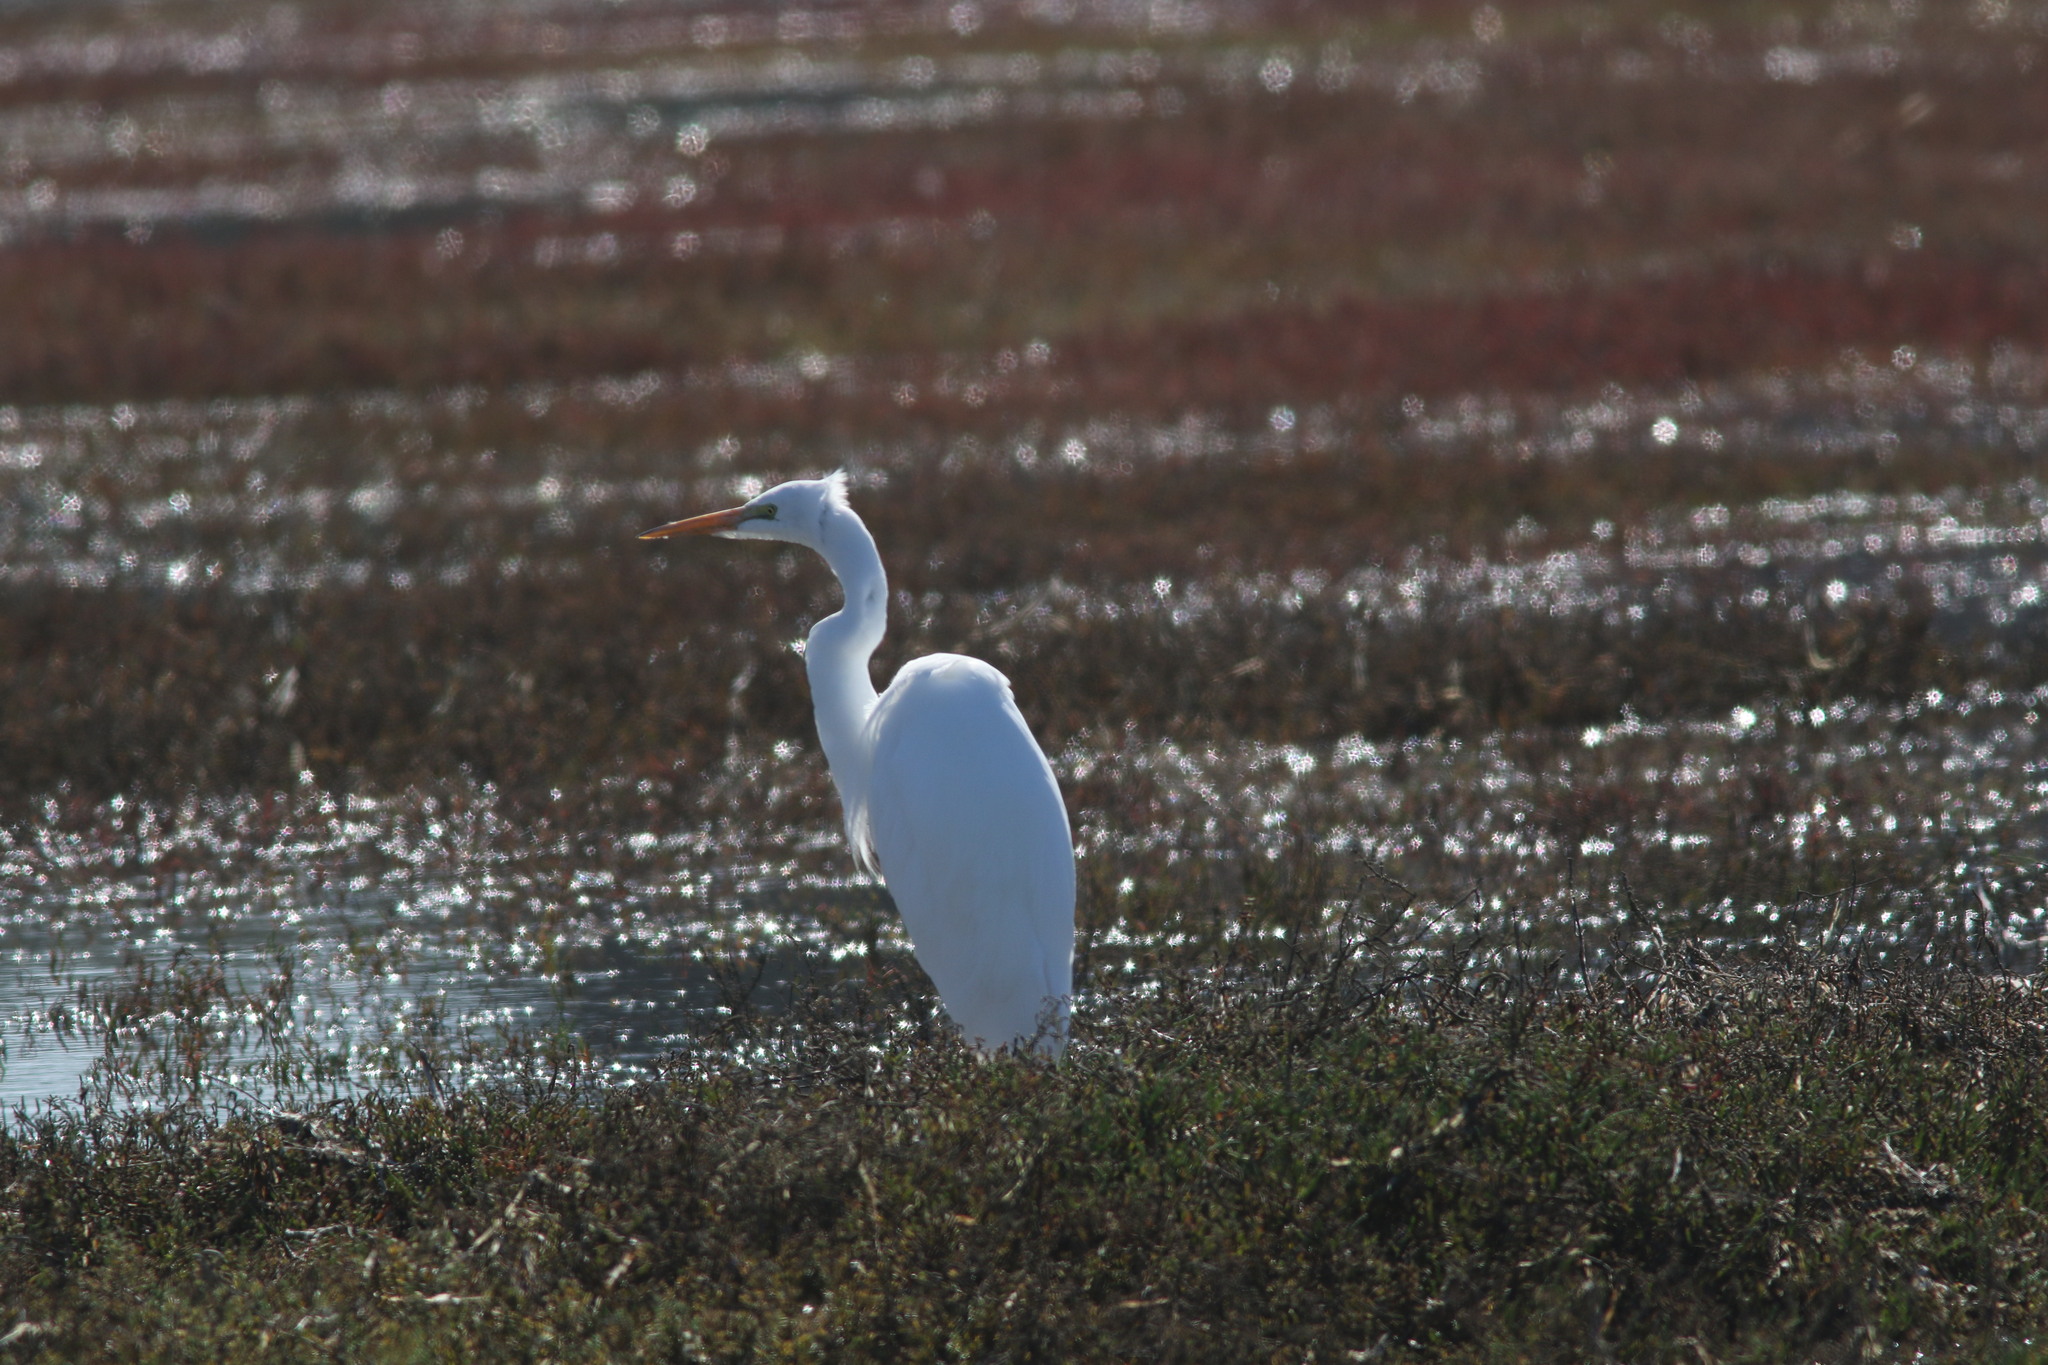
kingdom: Animalia
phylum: Chordata
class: Aves
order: Pelecaniformes
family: Ardeidae
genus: Ardea
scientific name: Ardea alba
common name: Great egret
